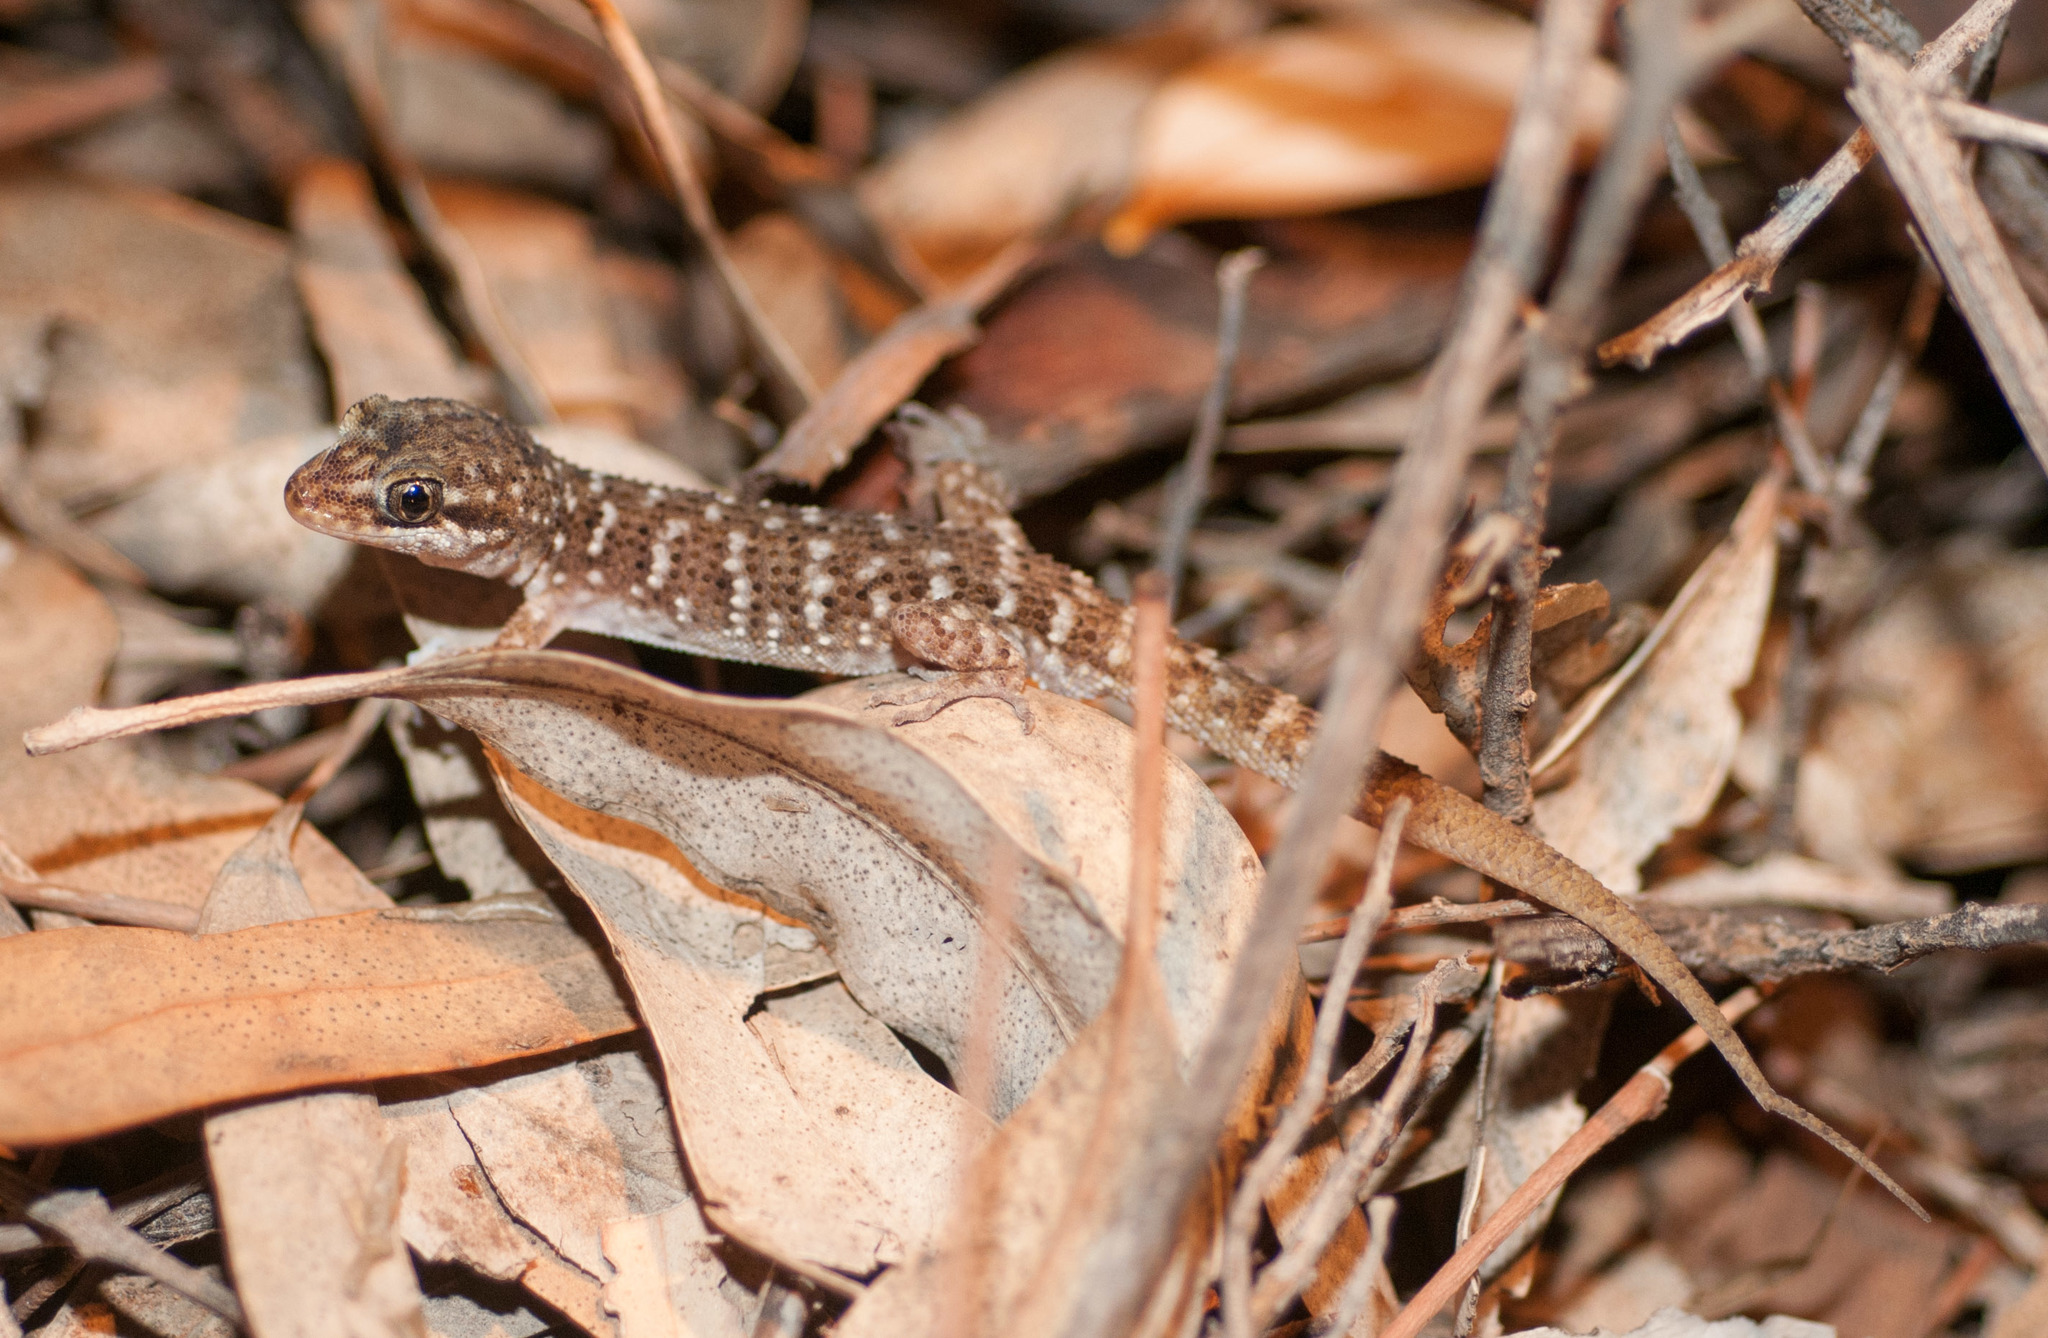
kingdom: Animalia
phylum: Chordata
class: Squamata
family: Gekkonidae
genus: Heteronotia
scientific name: Heteronotia binoei
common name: Bynoe's gecko
